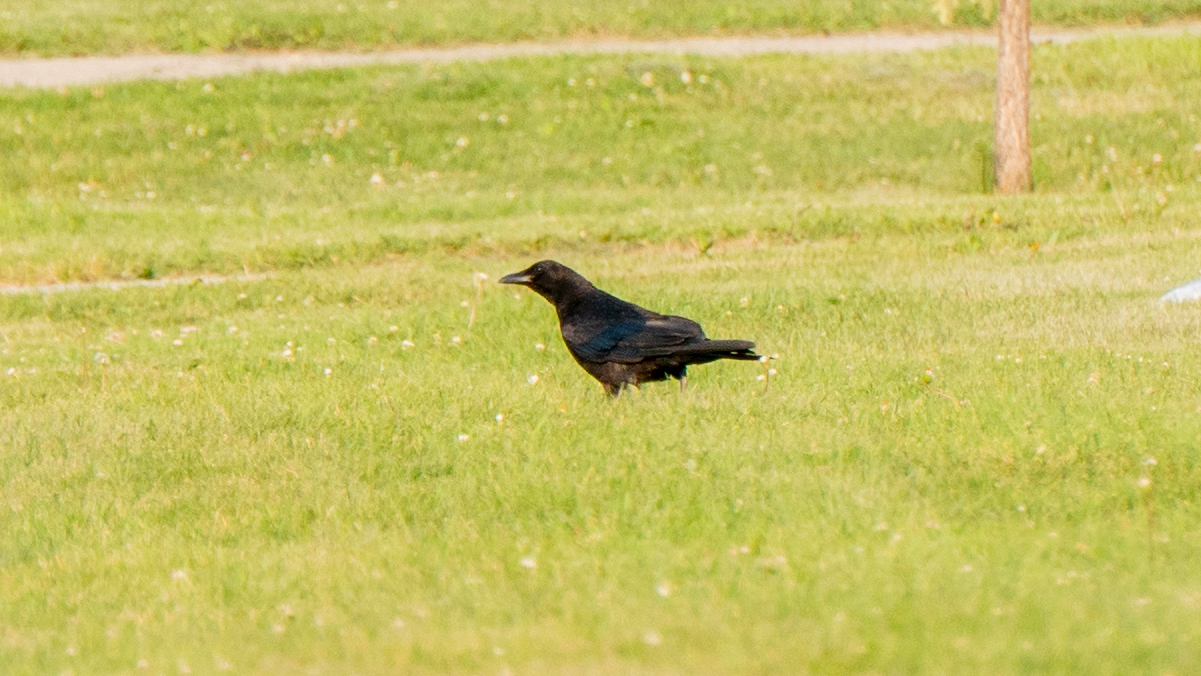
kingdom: Animalia
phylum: Chordata
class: Aves
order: Passeriformes
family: Corvidae
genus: Corvus
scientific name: Corvus brachyrhynchos
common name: American crow
